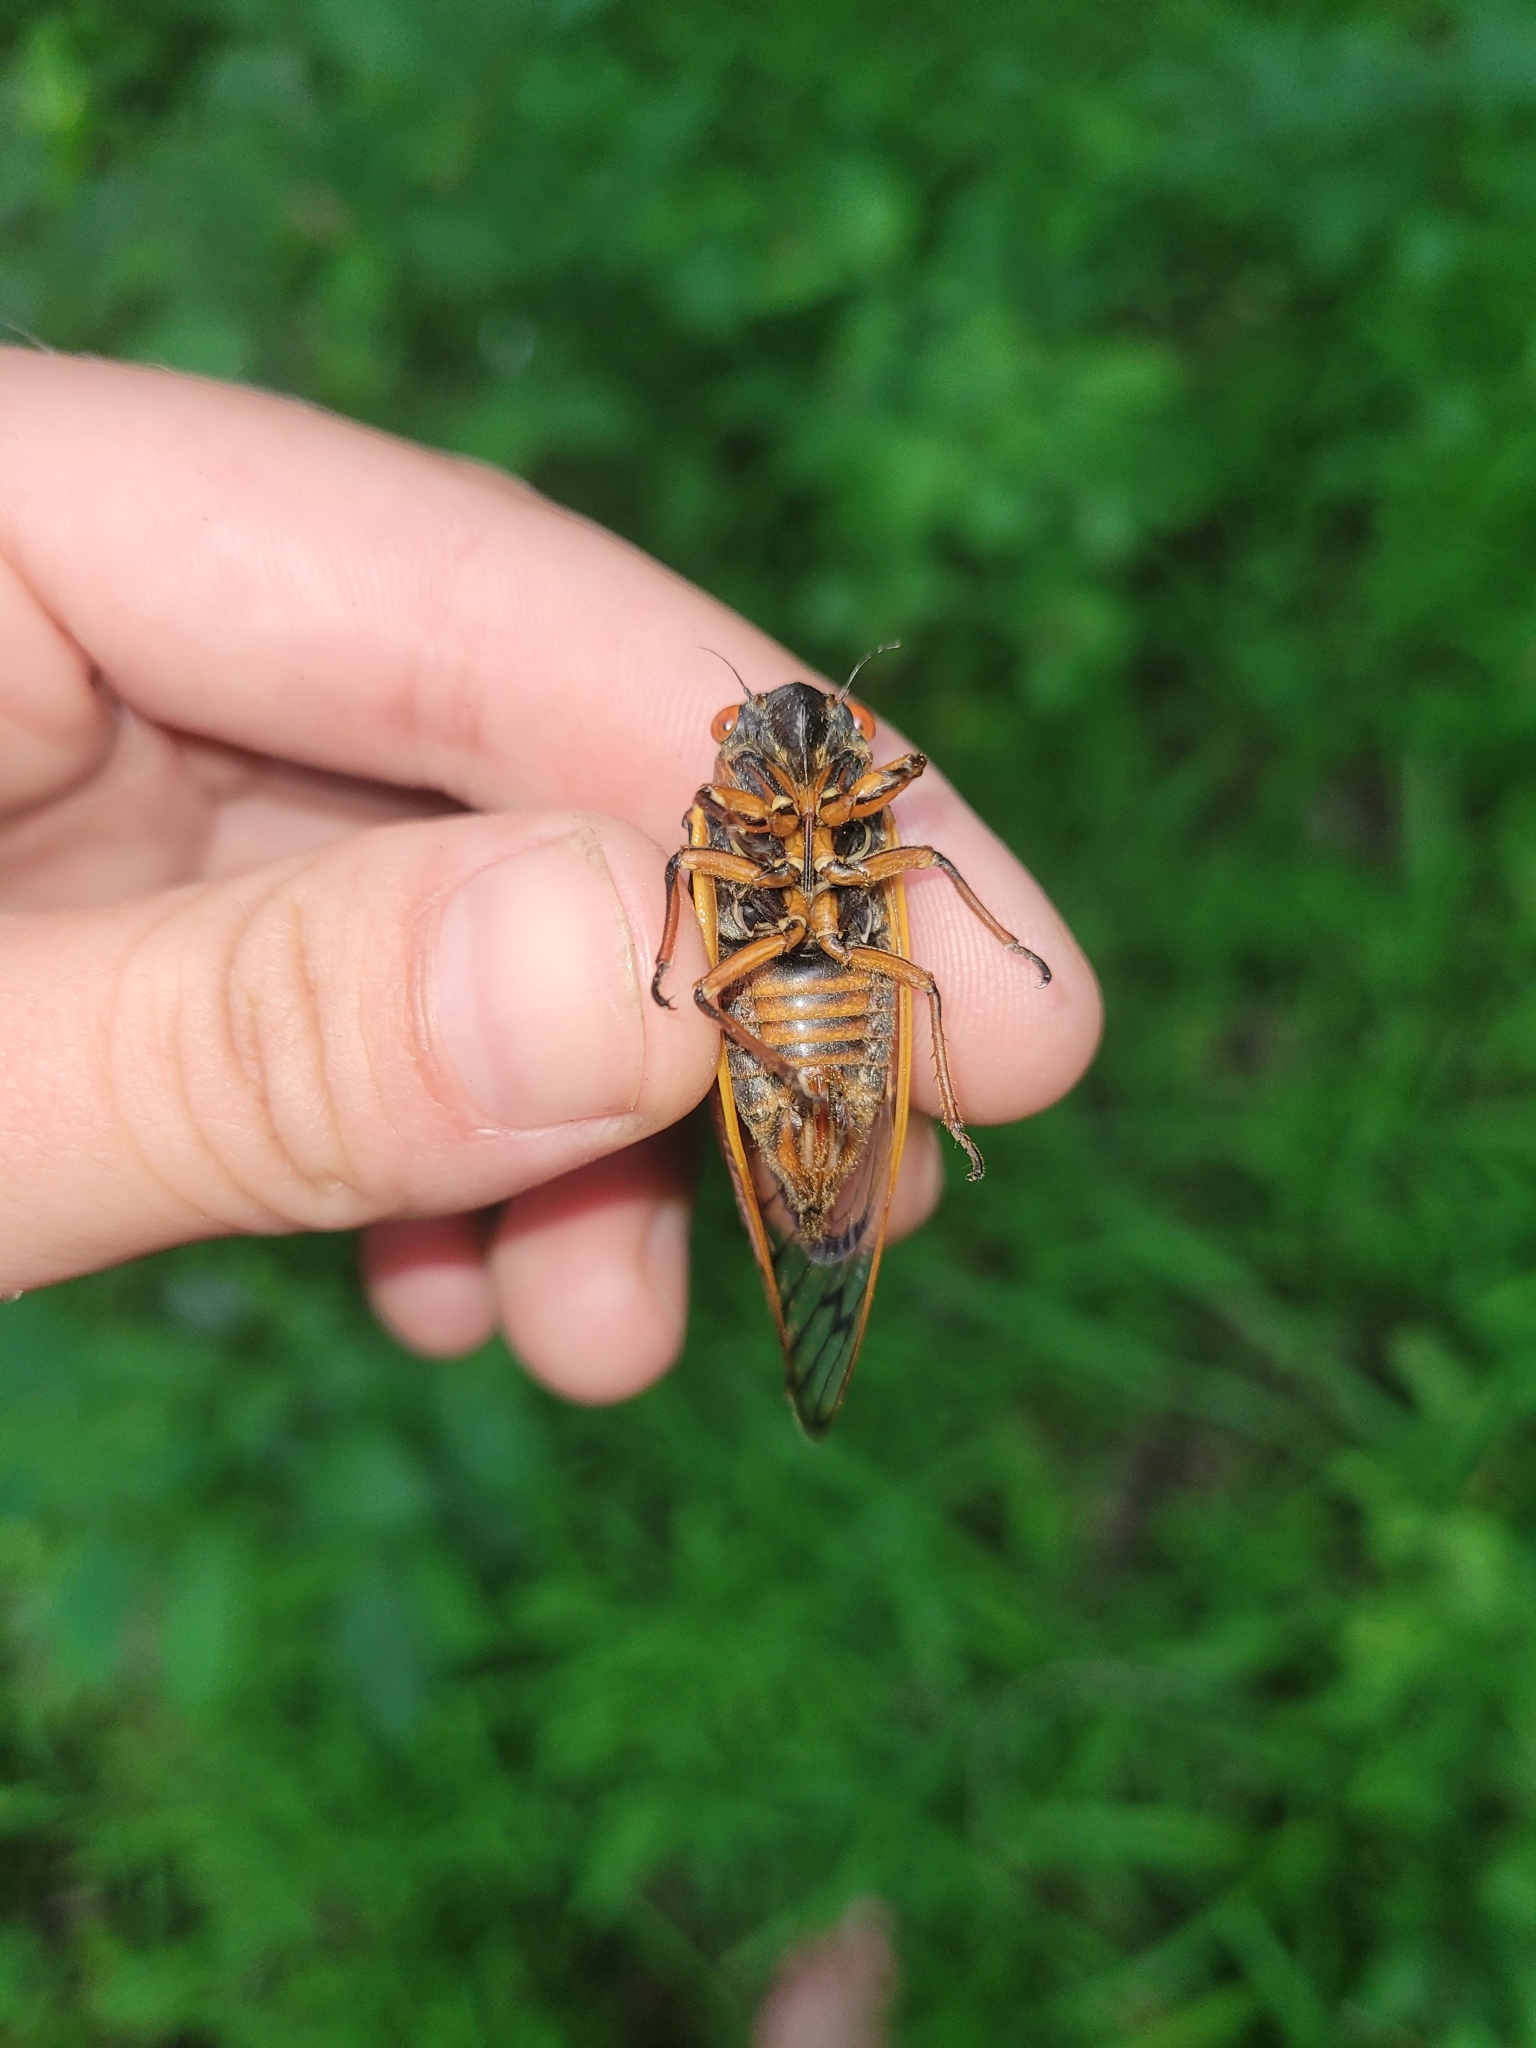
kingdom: Animalia
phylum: Arthropoda
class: Insecta
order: Hemiptera
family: Cicadidae
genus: Magicicada
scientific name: Magicicada septendecim
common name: Periodical cicada
